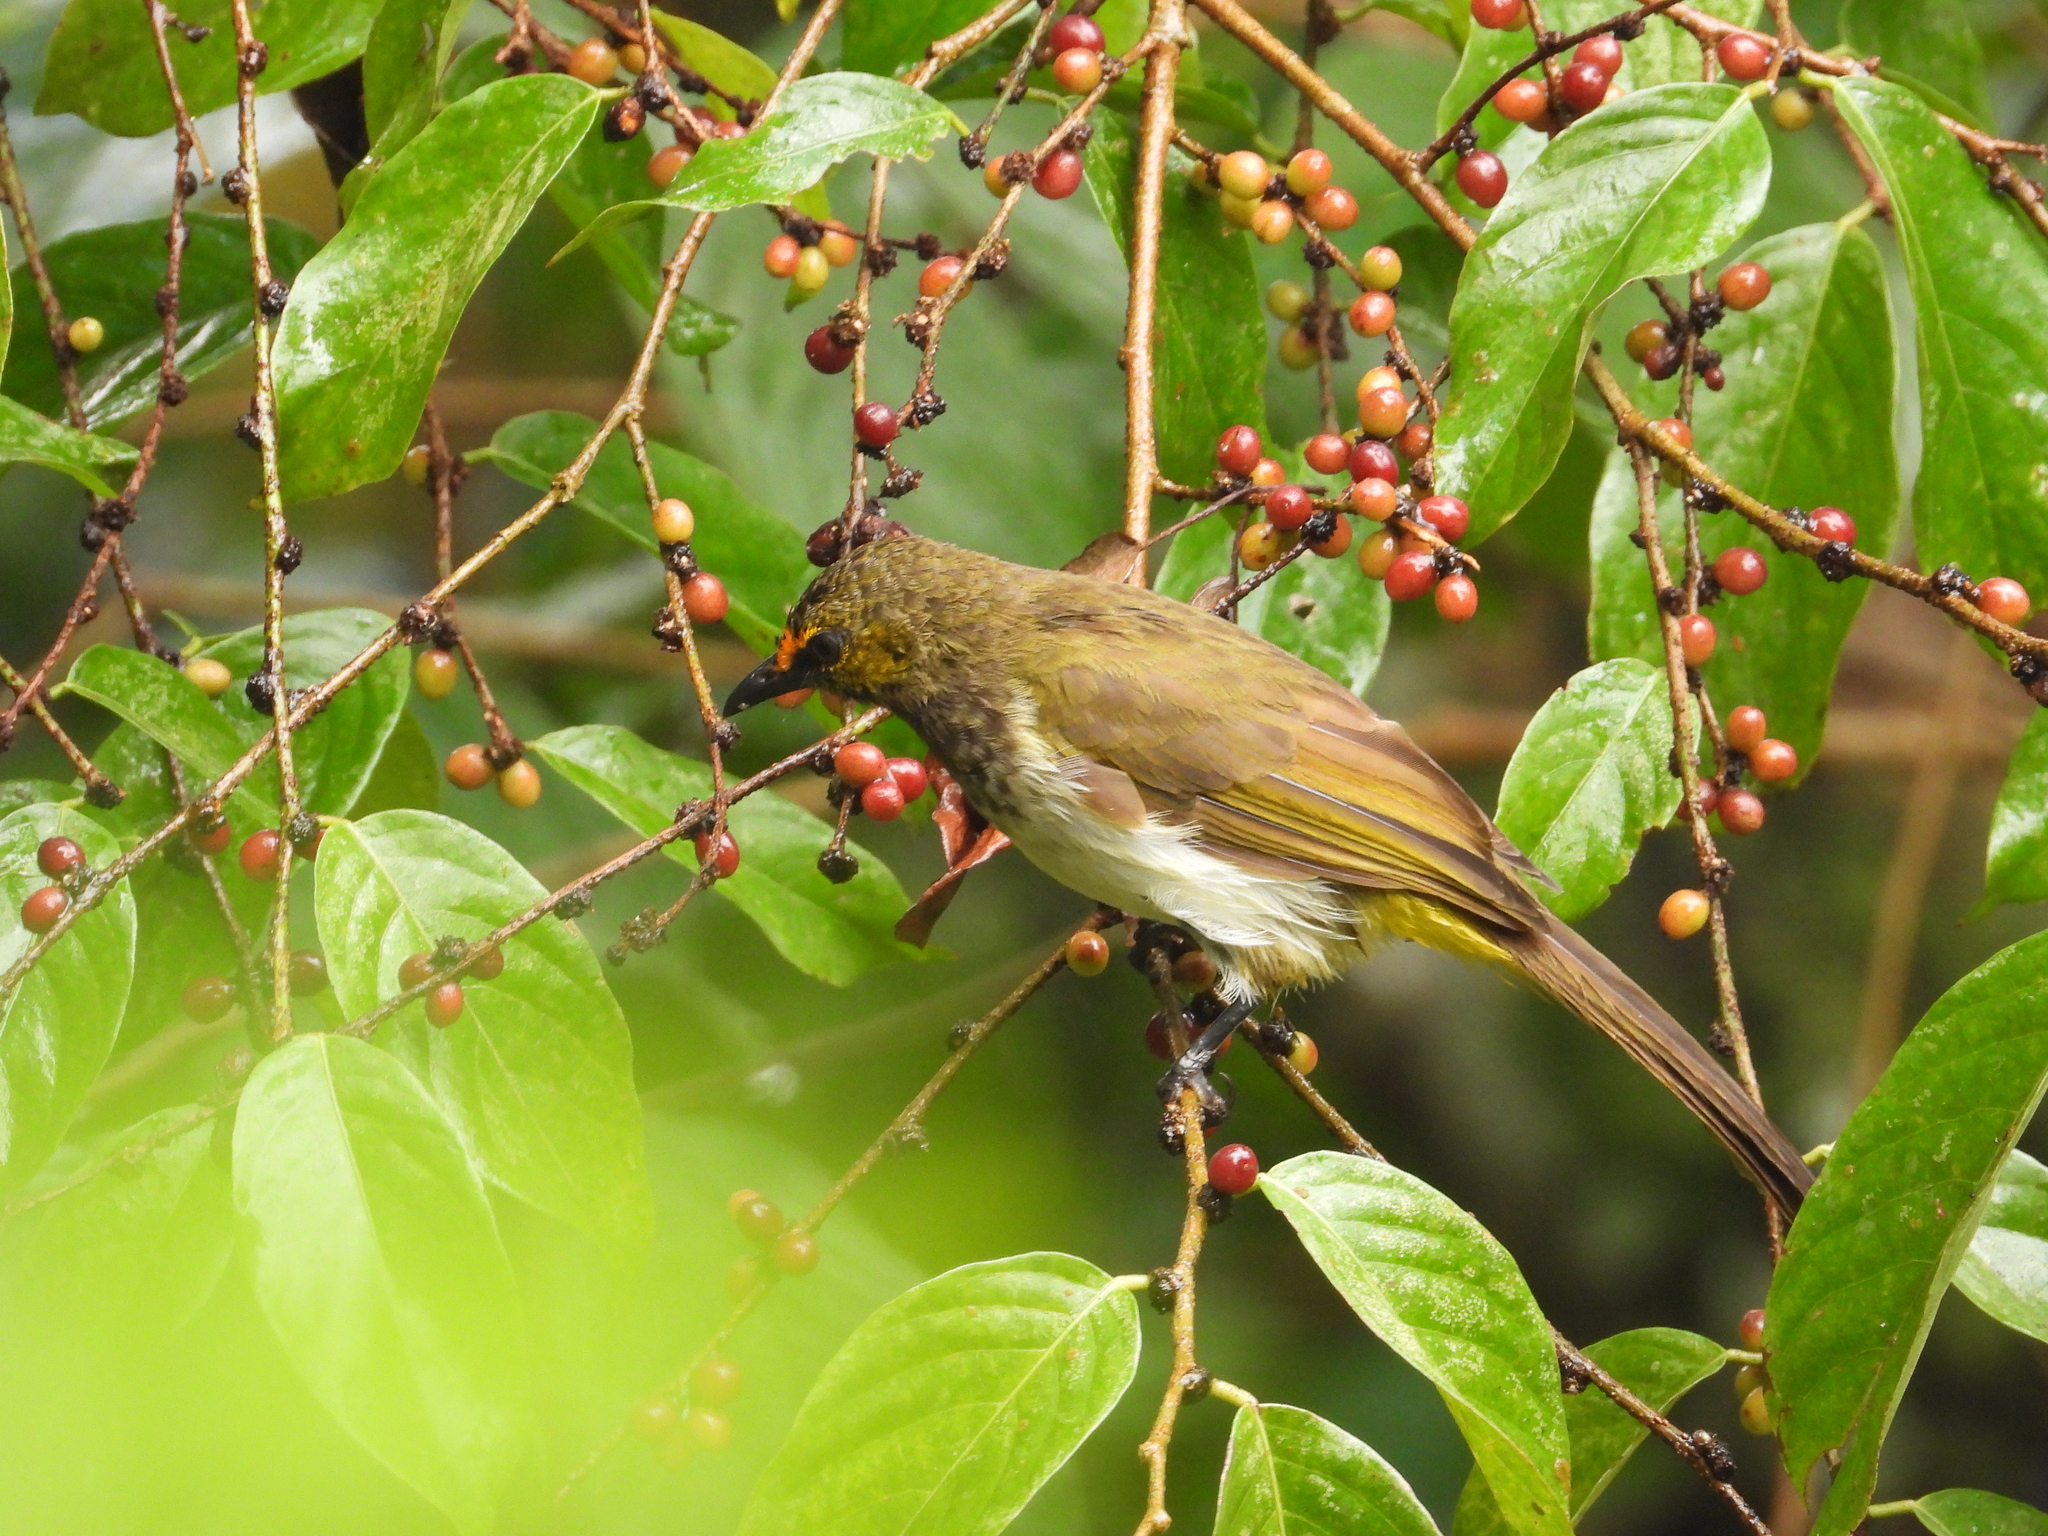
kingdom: Animalia
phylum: Chordata
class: Aves
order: Passeriformes
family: Pycnonotidae
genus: Pycnonotus
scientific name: Pycnonotus bimaculatus
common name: Orange-spotted bulbul
